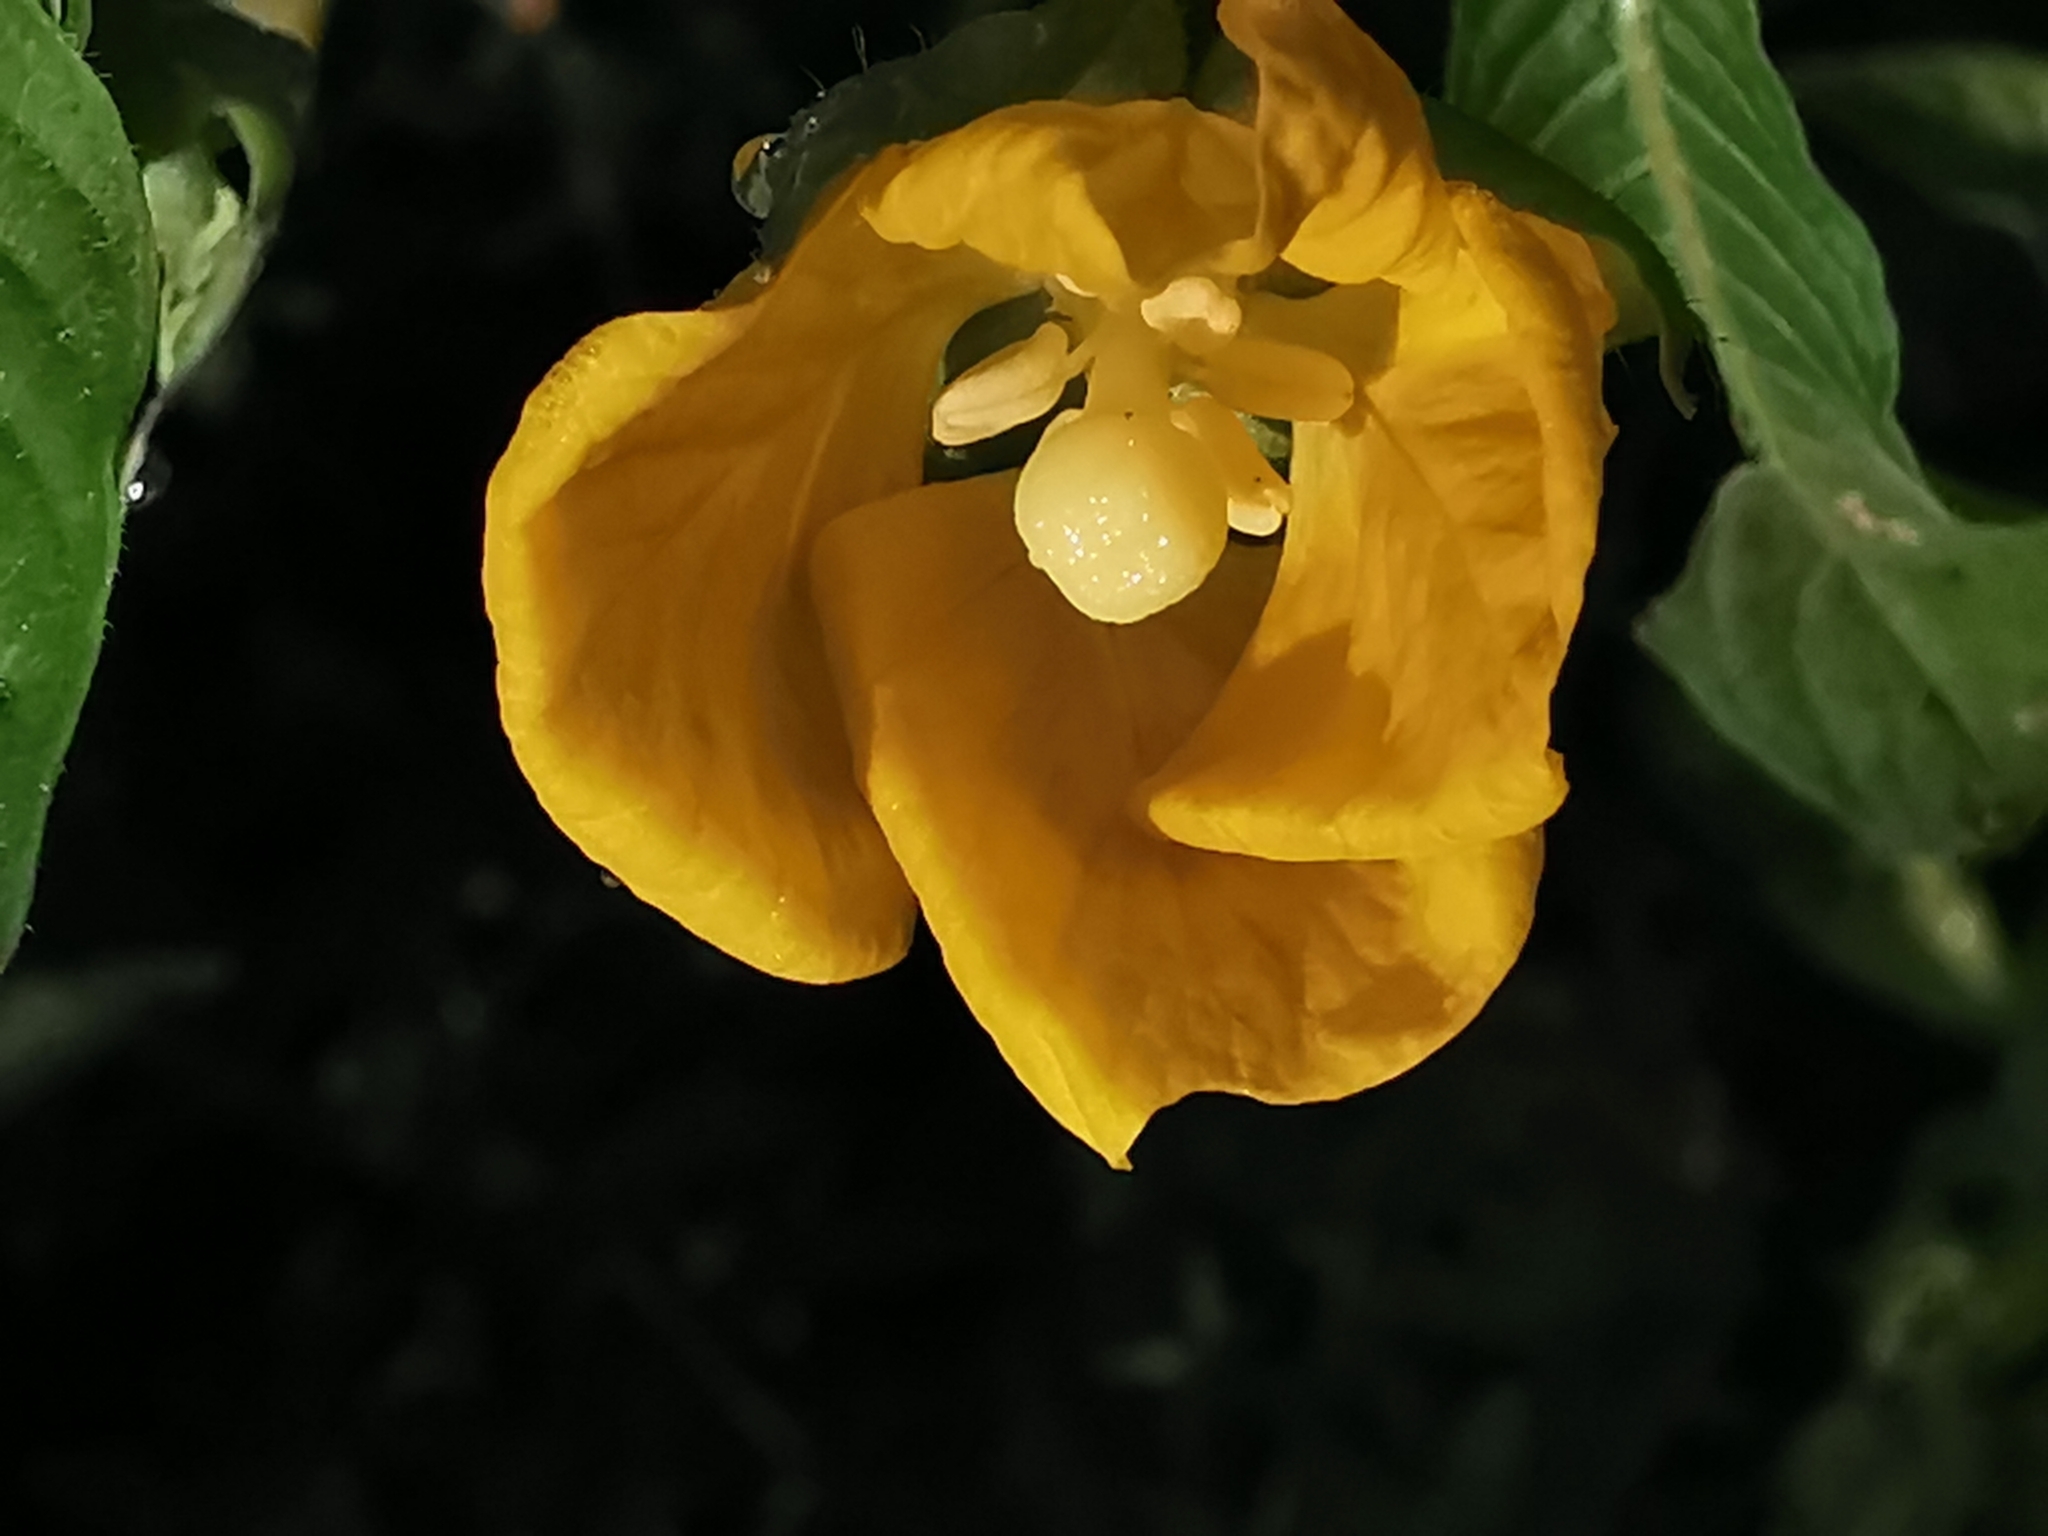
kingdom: Plantae
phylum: Tracheophyta
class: Magnoliopsida
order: Myrtales
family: Onagraceae
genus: Ludwigia
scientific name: Ludwigia octovalvis
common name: Water-primrose
